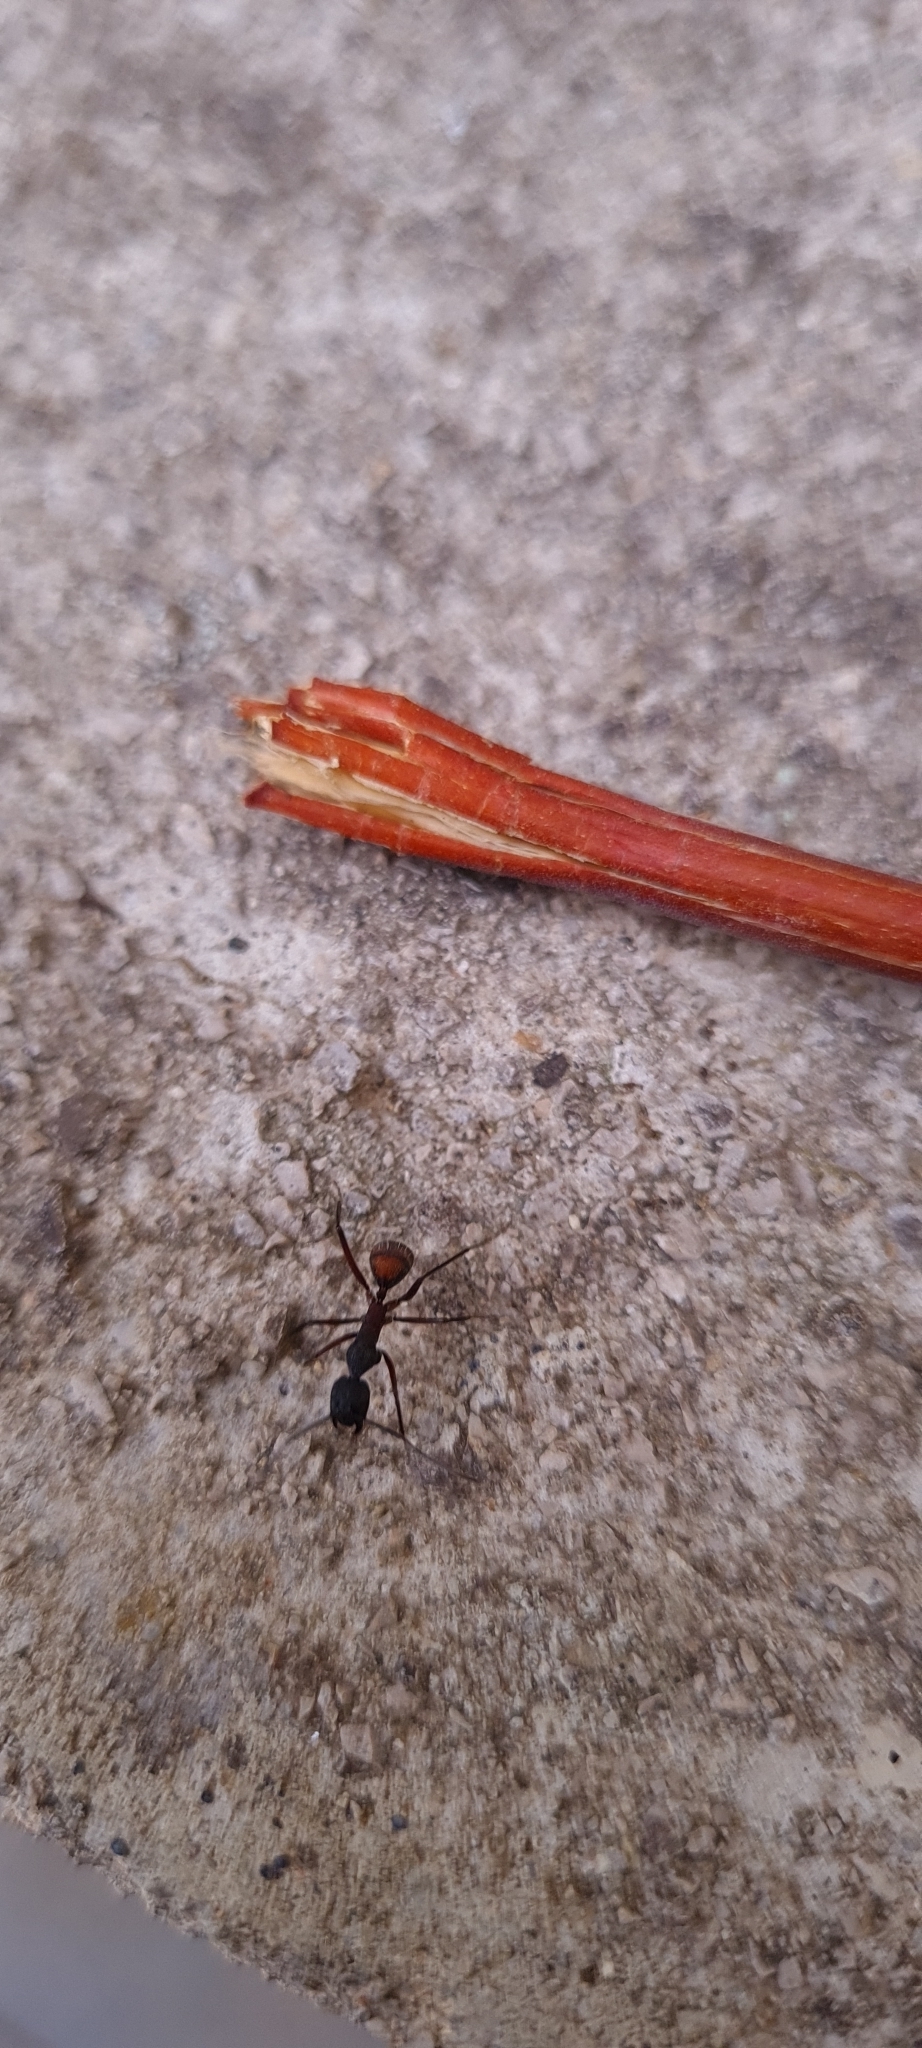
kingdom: Animalia
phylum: Arthropoda
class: Insecta
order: Hymenoptera
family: Formicidae
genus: Camponotus
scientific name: Camponotus cruentatus
